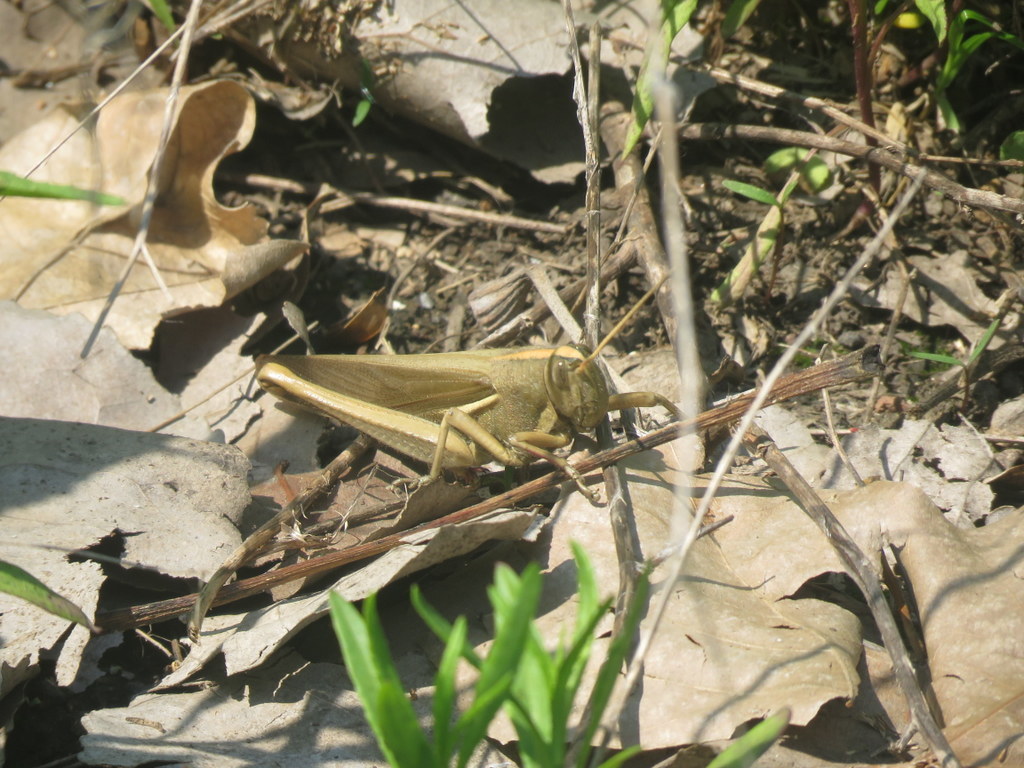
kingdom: Animalia
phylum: Arthropoda
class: Insecta
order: Orthoptera
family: Acrididae
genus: Schistocerca
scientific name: Schistocerca flavofasciata
